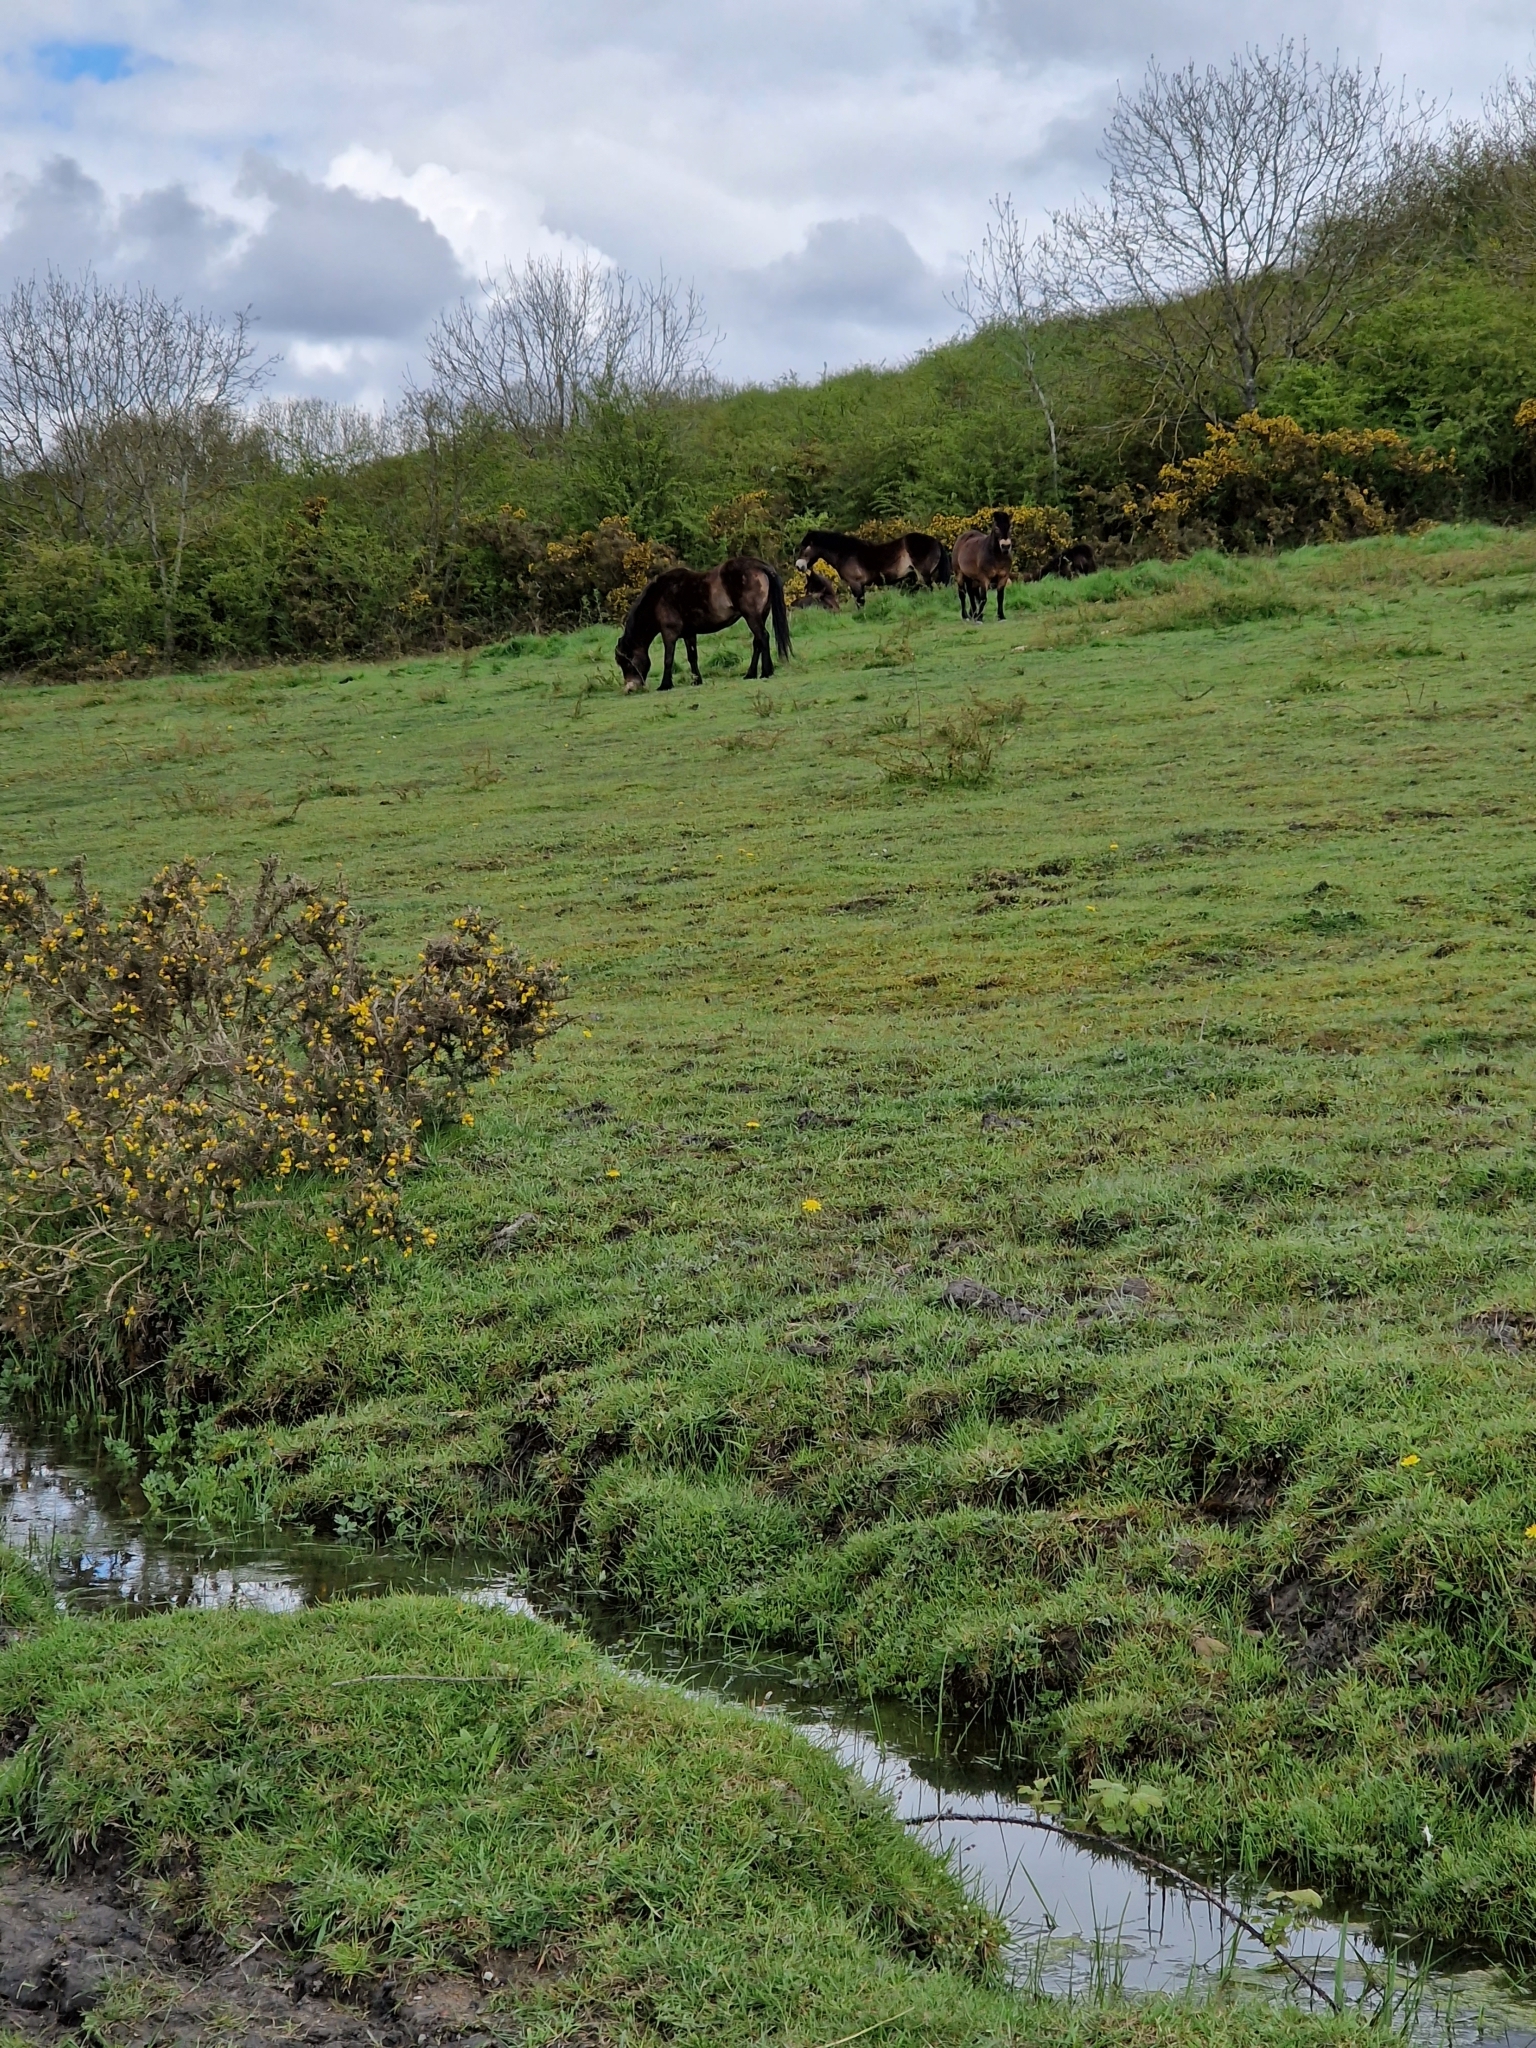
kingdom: Animalia
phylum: Chordata
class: Mammalia
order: Perissodactyla
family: Equidae
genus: Equus
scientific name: Equus caballus
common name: Horse
